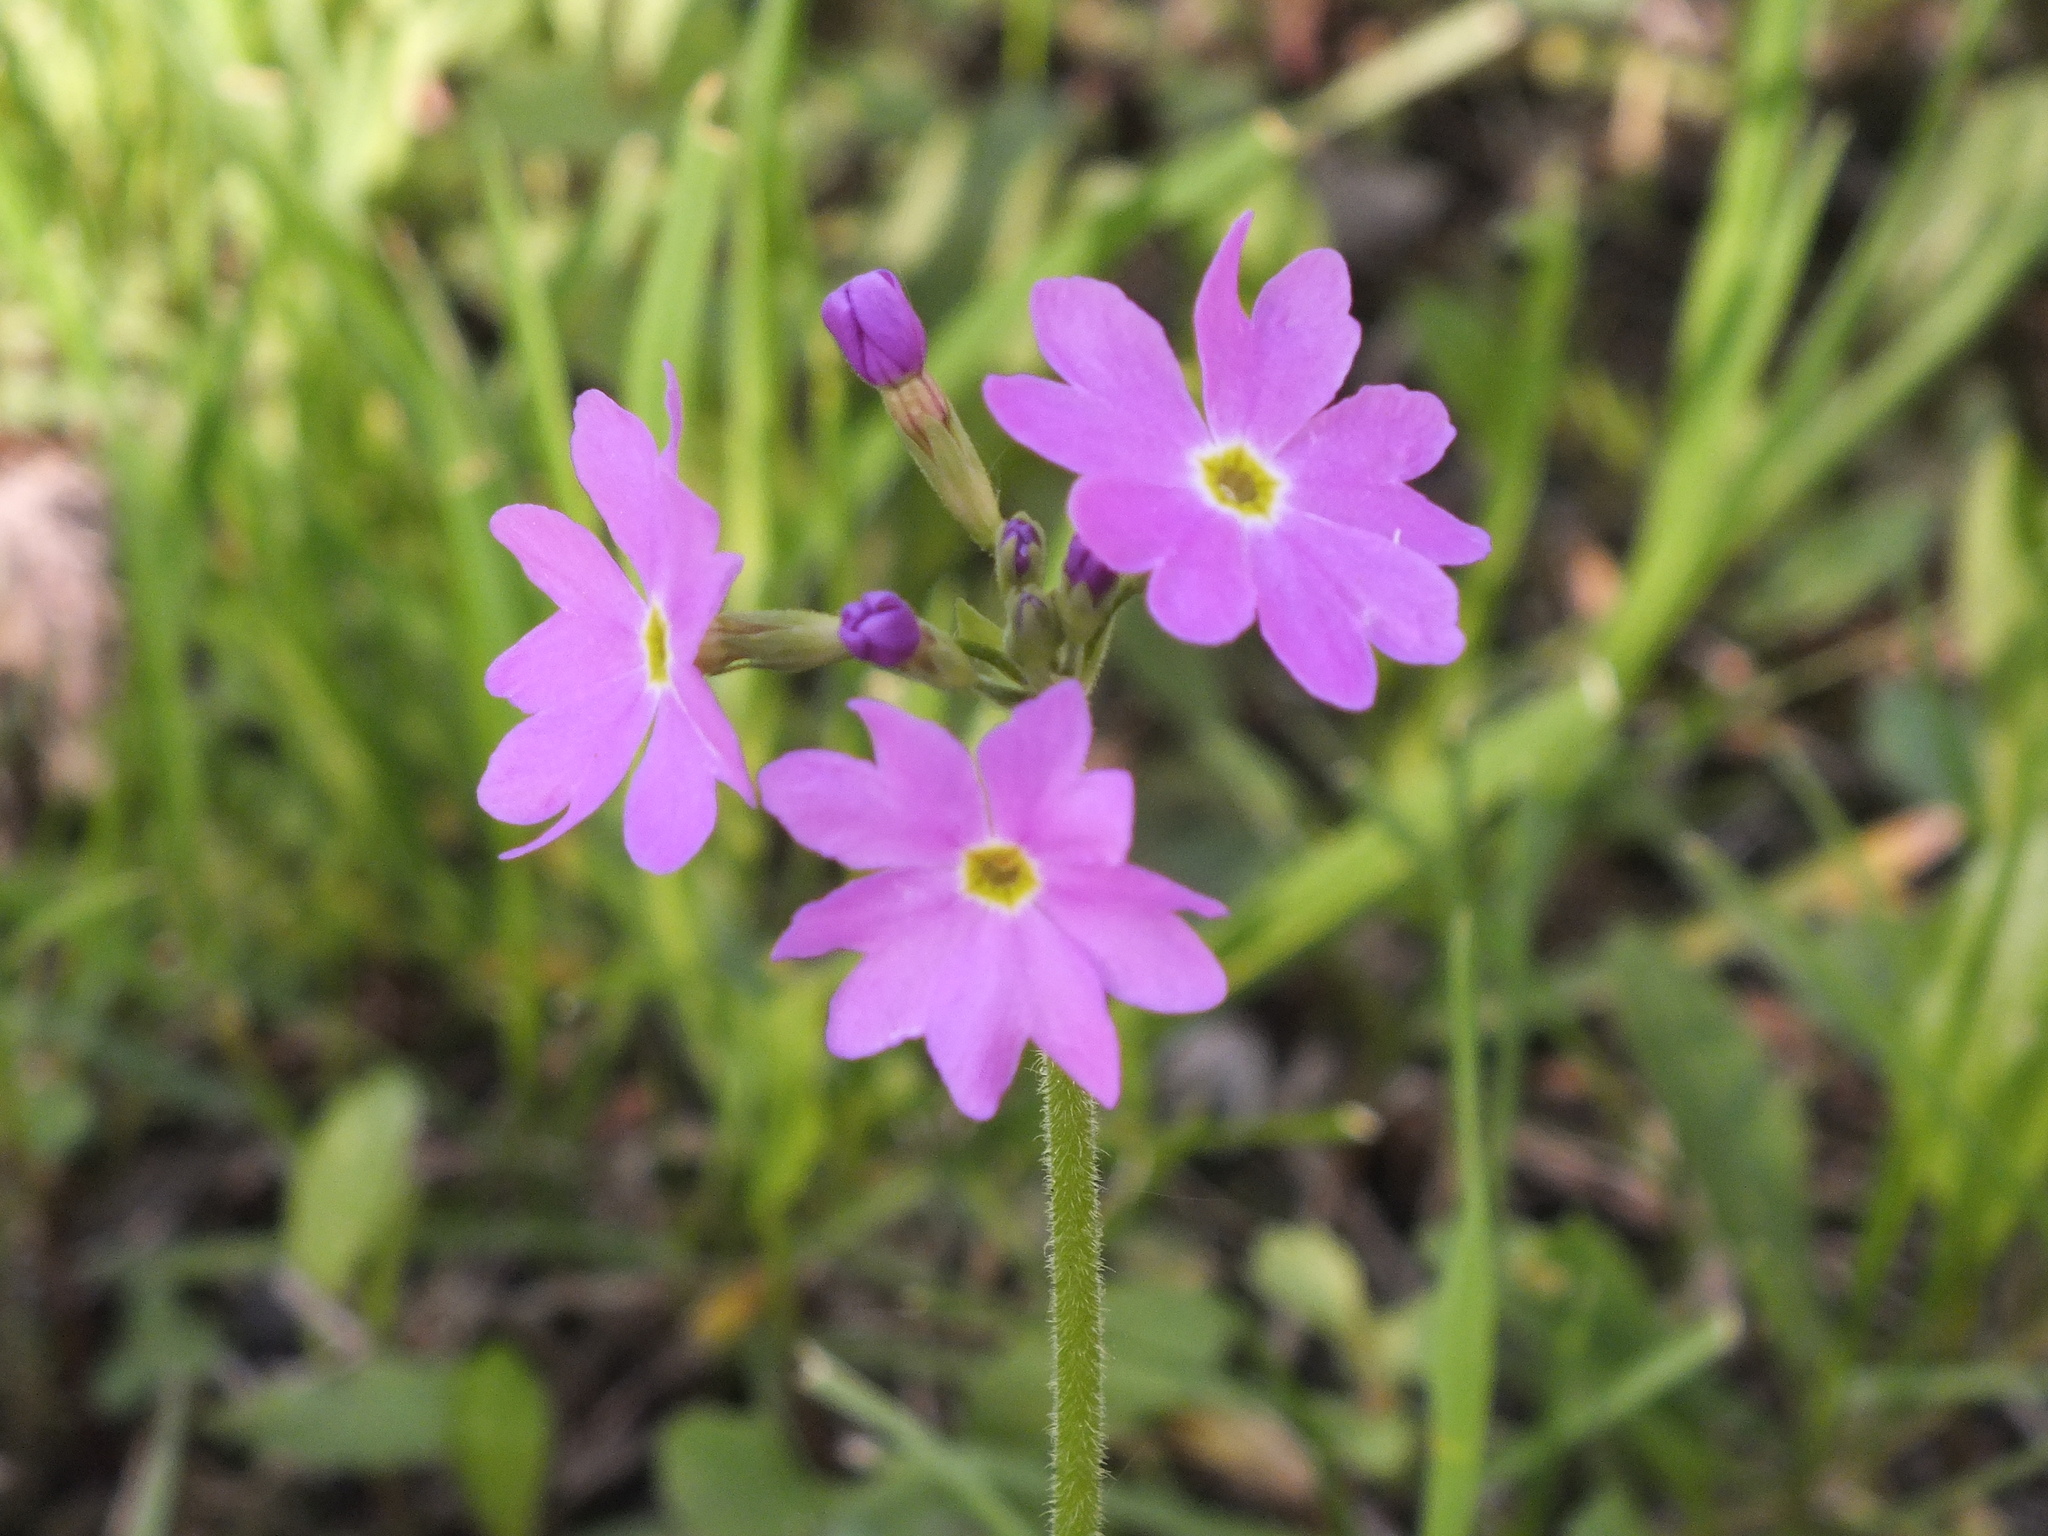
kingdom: Plantae
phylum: Tracheophyta
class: Magnoliopsida
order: Ericales
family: Primulaceae
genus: Primula
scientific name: Primula cortusoides
